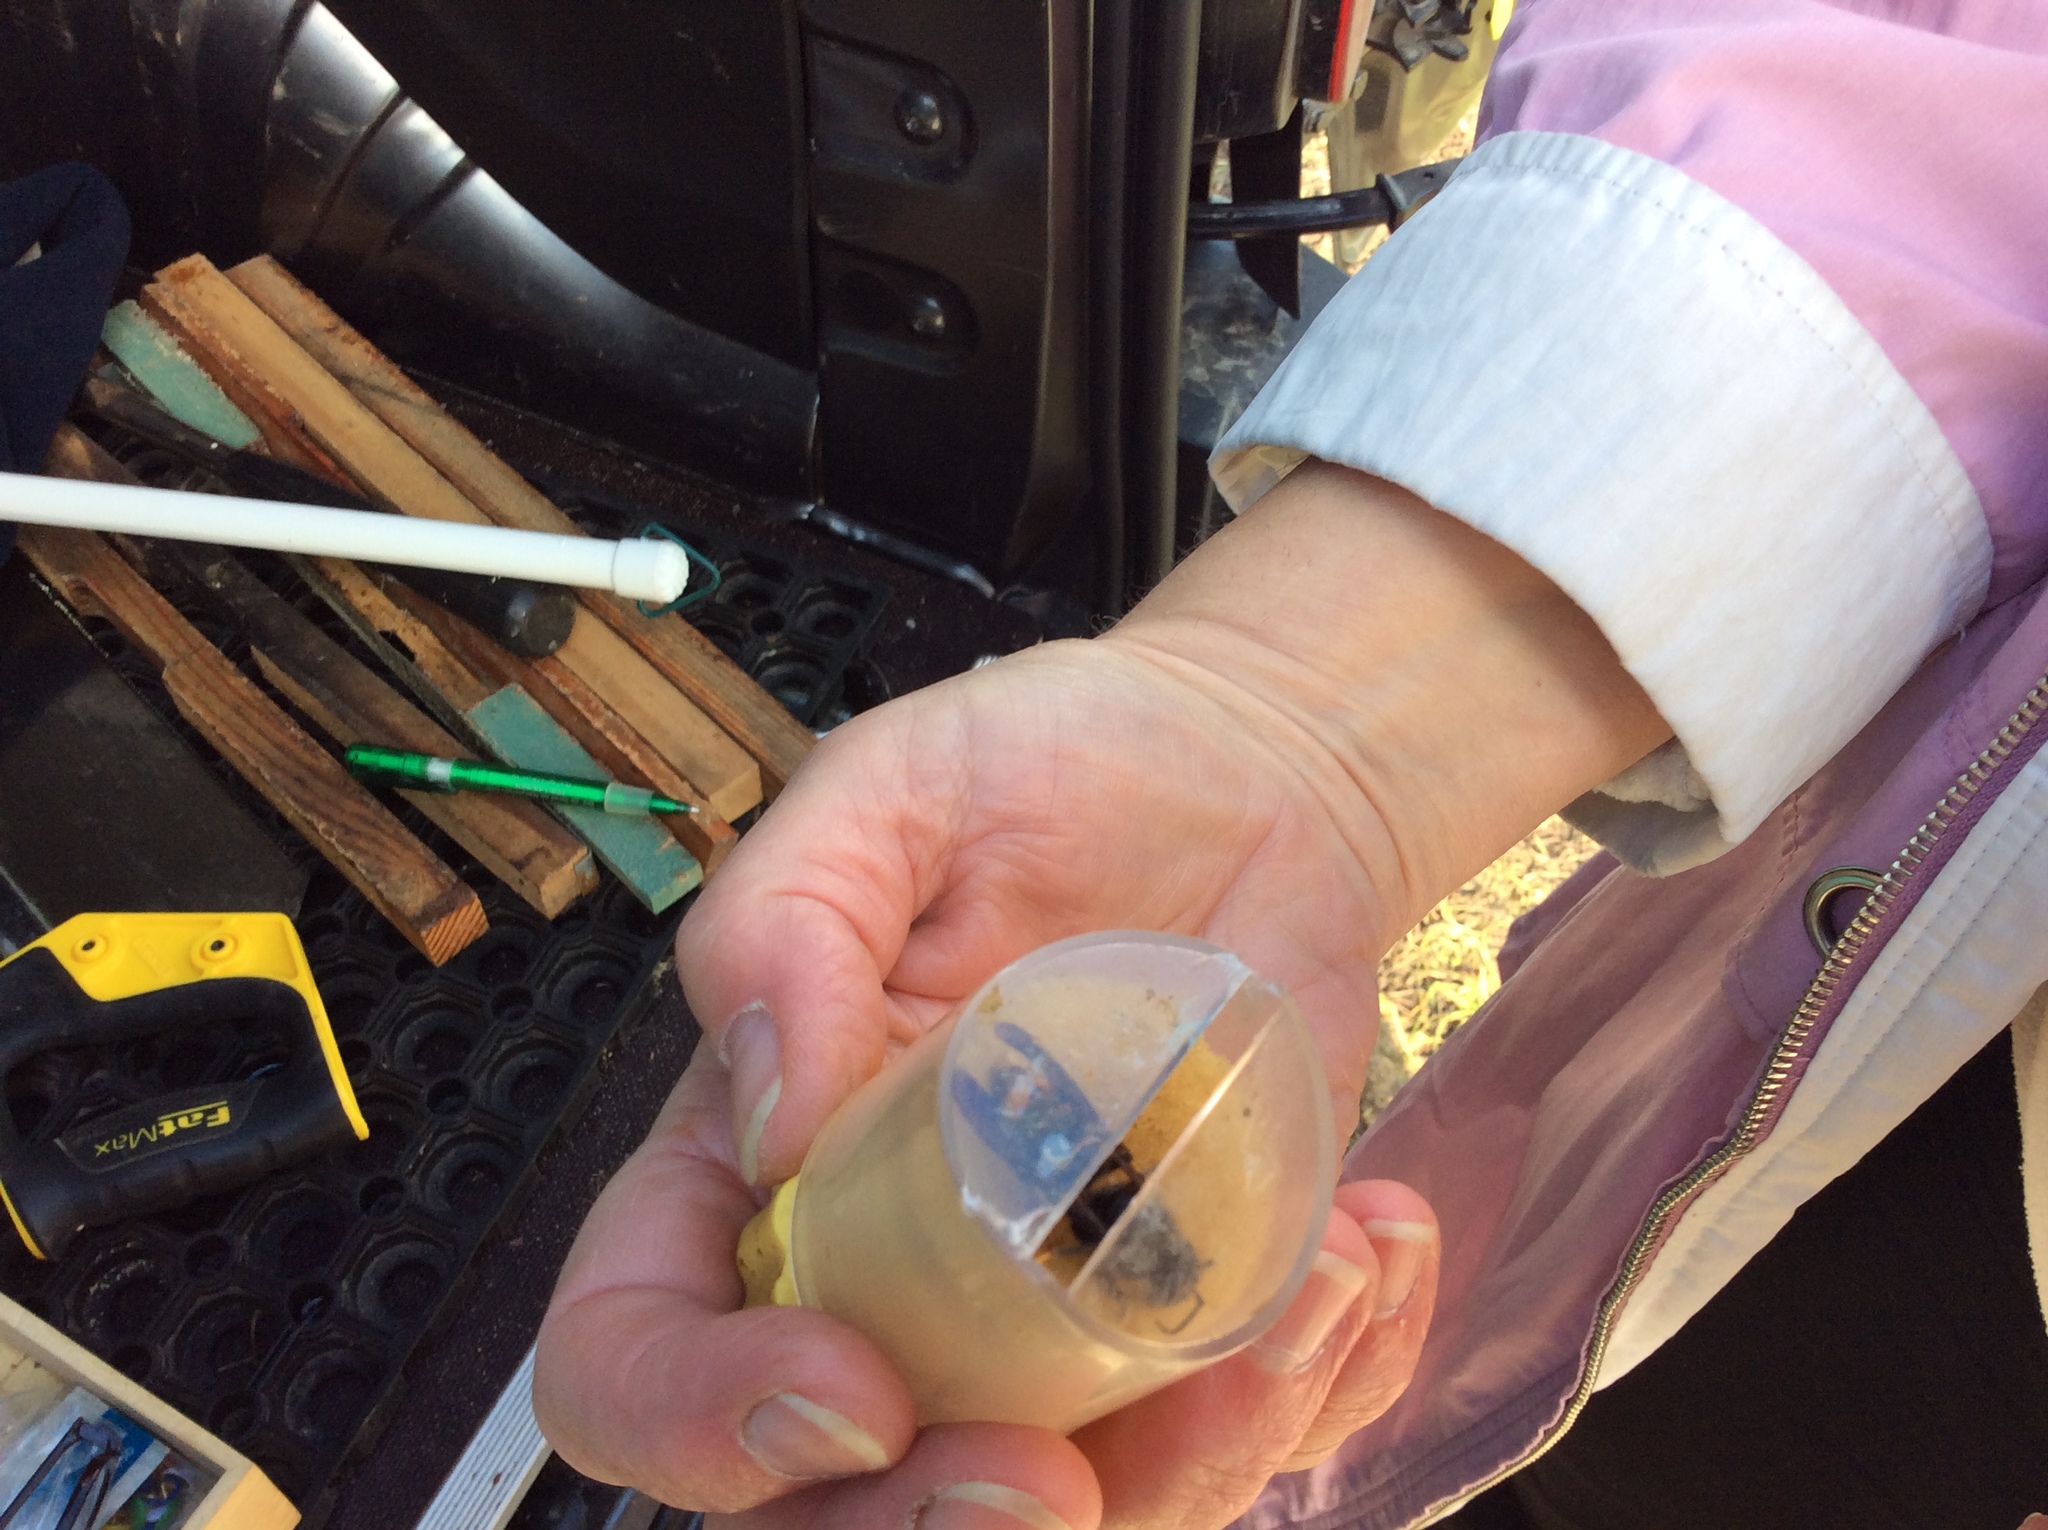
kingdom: Animalia
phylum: Arthropoda
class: Insecta
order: Hymenoptera
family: Vespidae
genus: Vespa
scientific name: Vespa velutina
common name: Asian hornet
